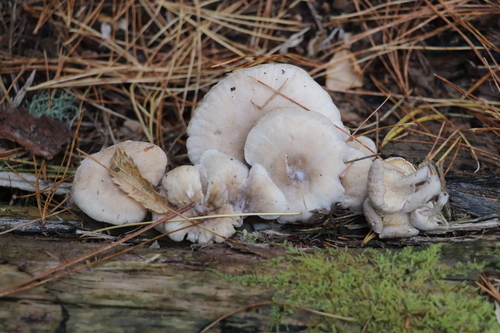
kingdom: Fungi
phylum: Basidiomycota
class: Agaricomycetes
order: Agaricales
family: Lyophyllaceae
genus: Ossicaulis
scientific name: Ossicaulis lignatilis
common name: Mealy oyster
